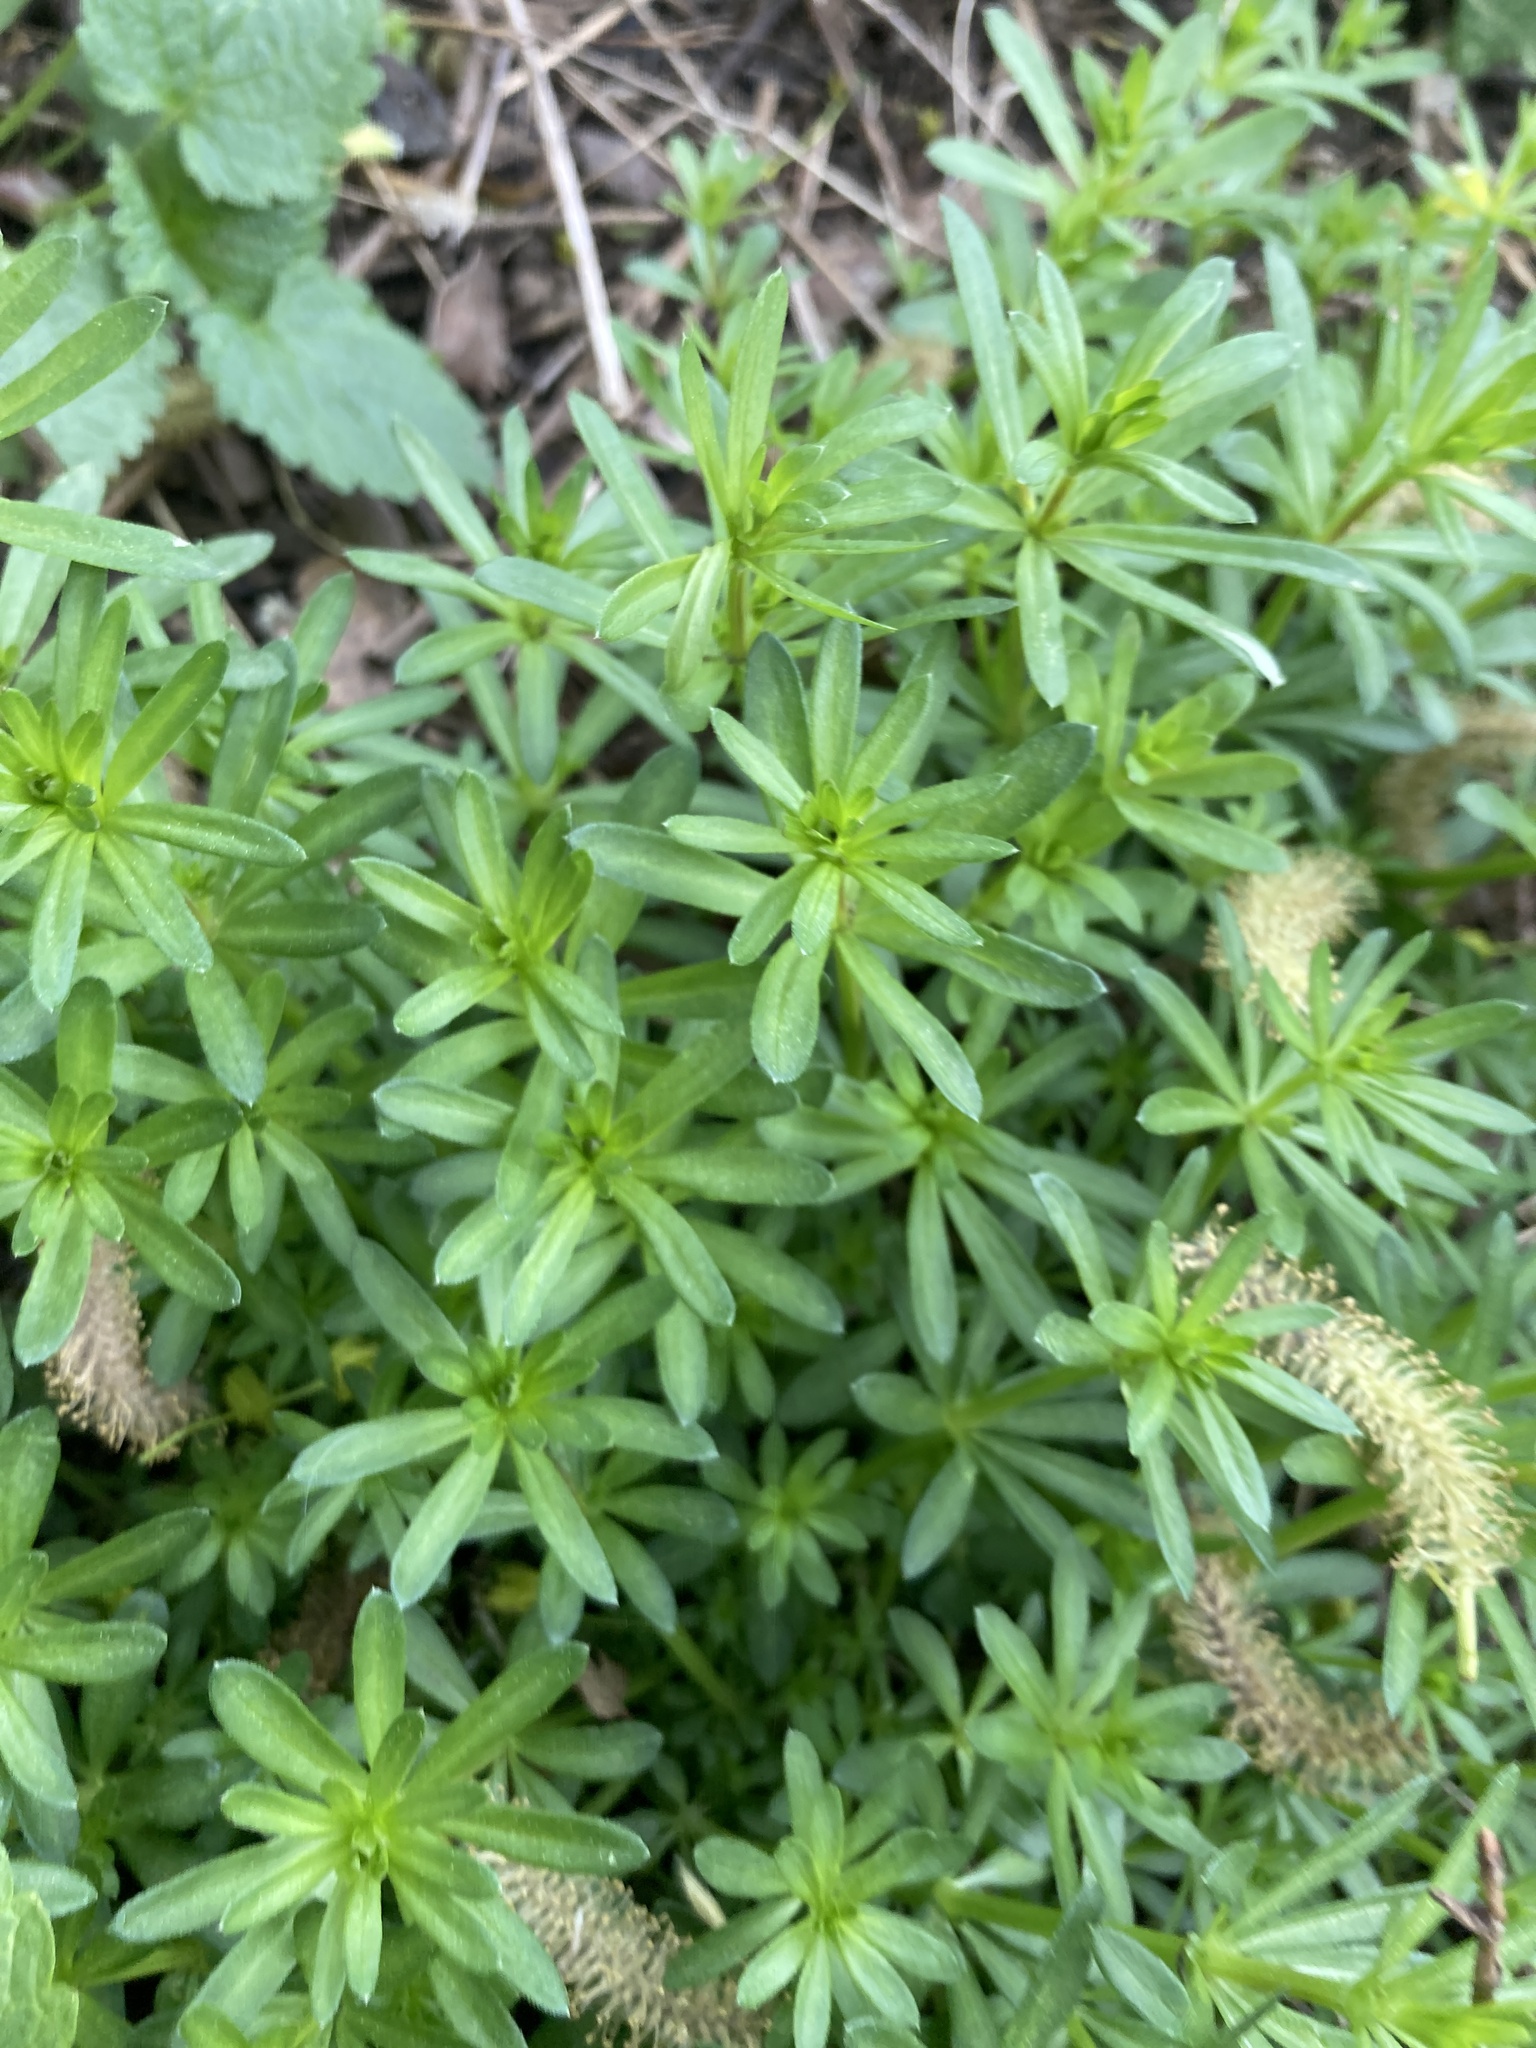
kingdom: Plantae
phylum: Tracheophyta
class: Magnoliopsida
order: Gentianales
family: Rubiaceae
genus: Galium
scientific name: Galium mollugo
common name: Hedge bedstraw
